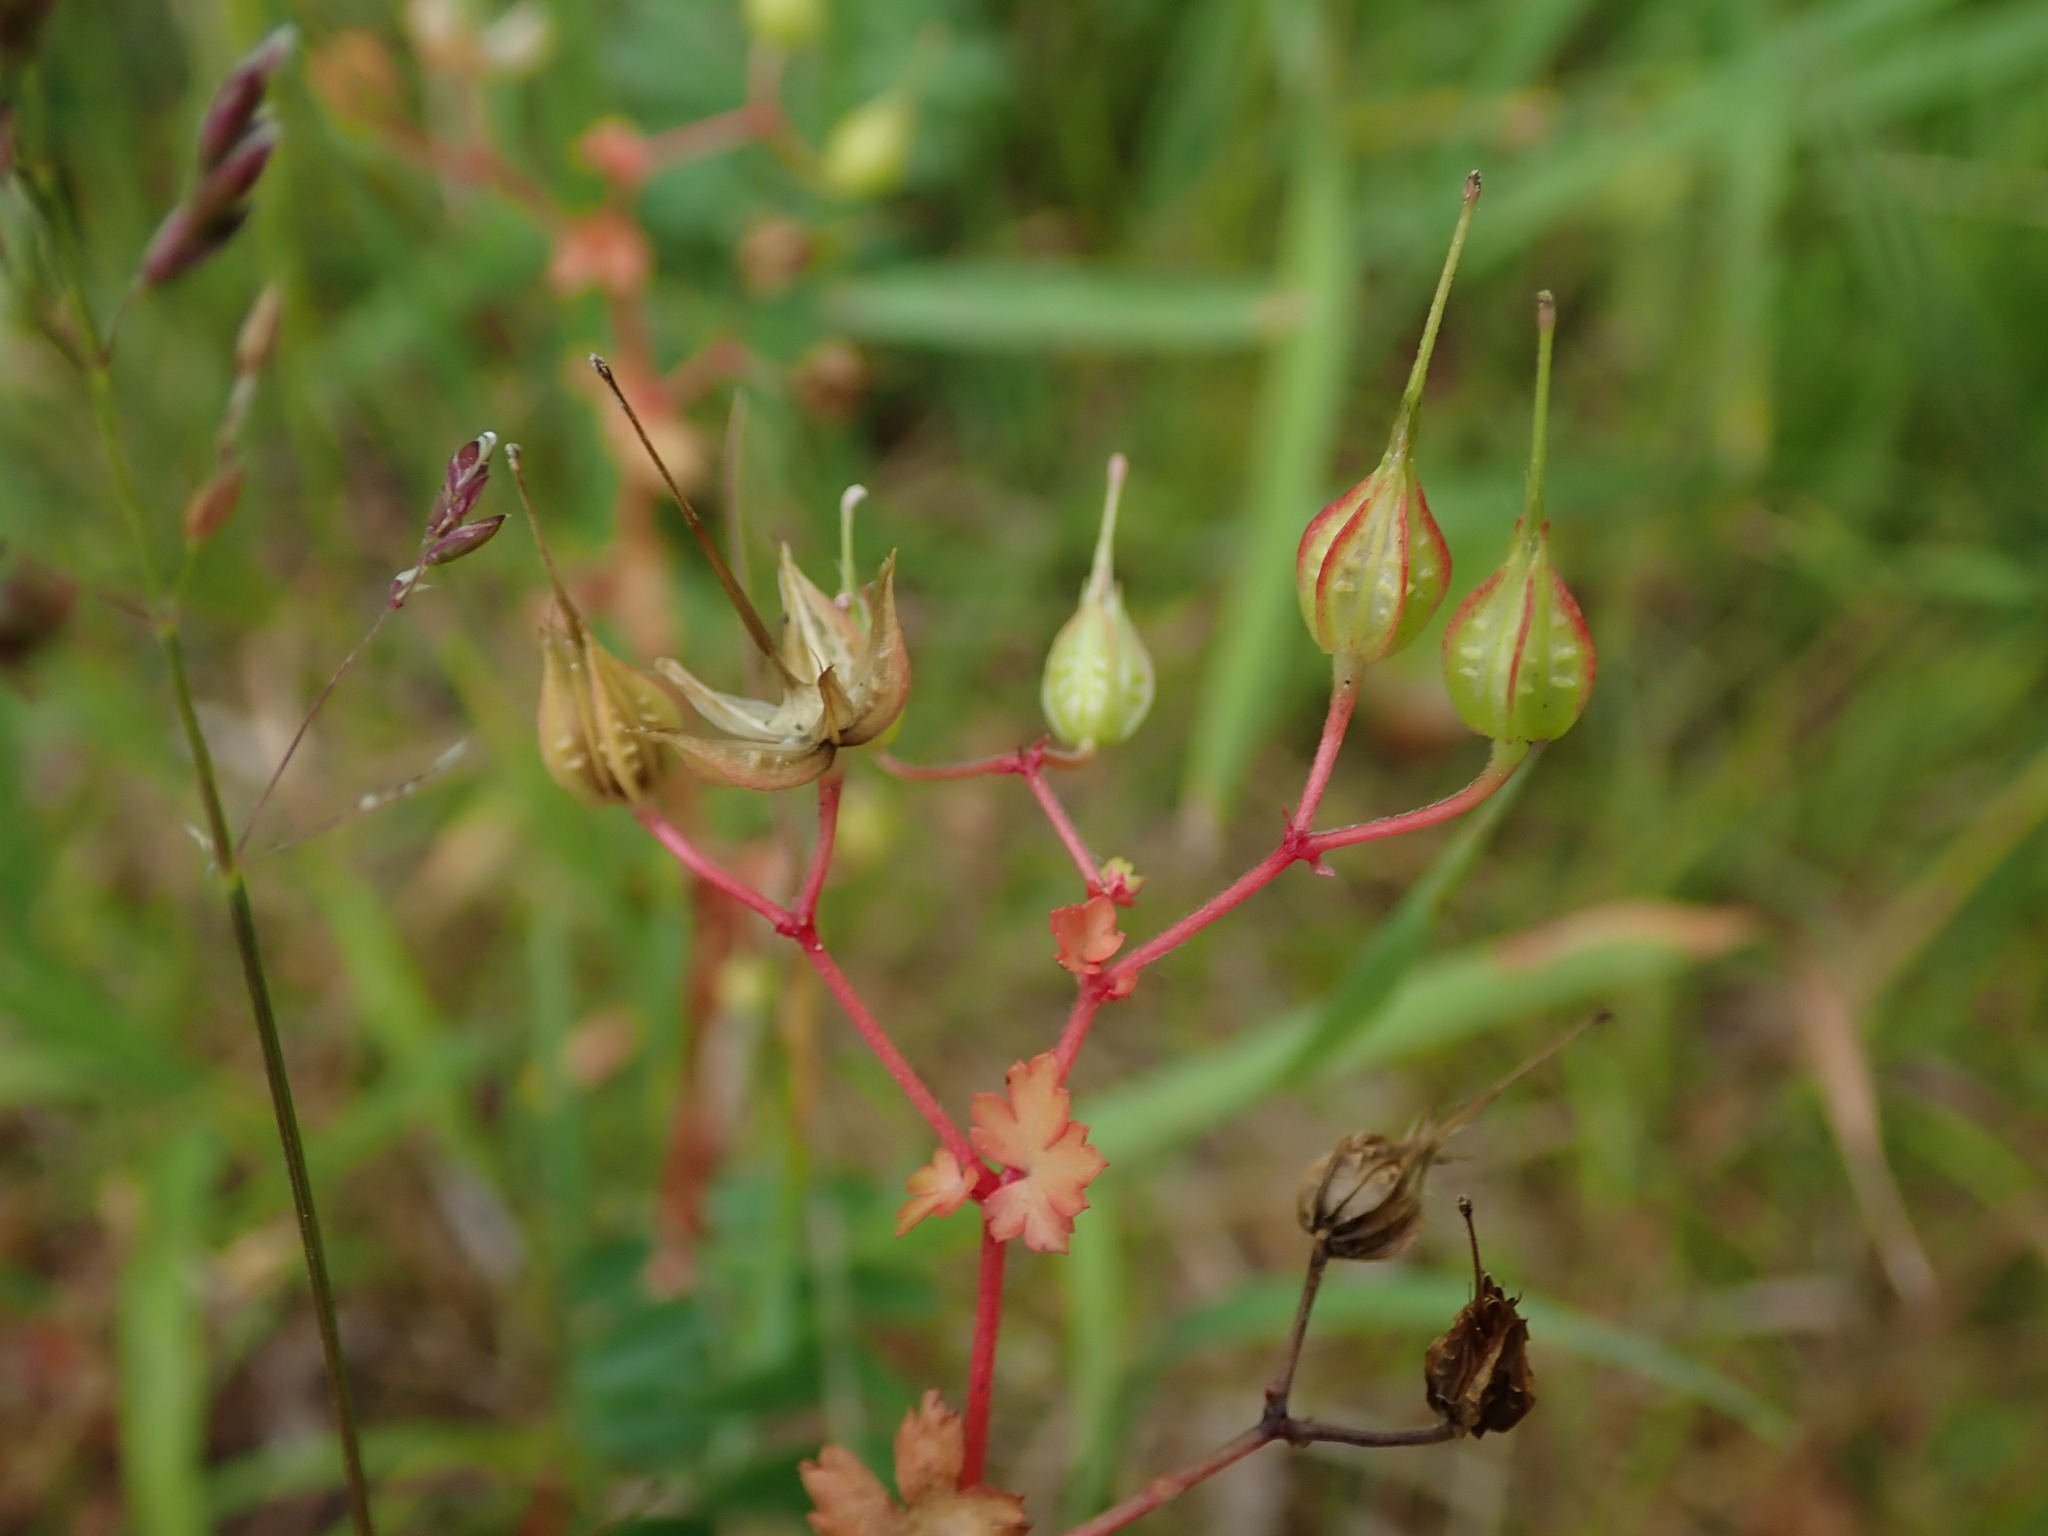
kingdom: Plantae
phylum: Tracheophyta
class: Magnoliopsida
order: Geraniales
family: Geraniaceae
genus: Geranium
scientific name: Geranium lucidum
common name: Shining crane's-bill
